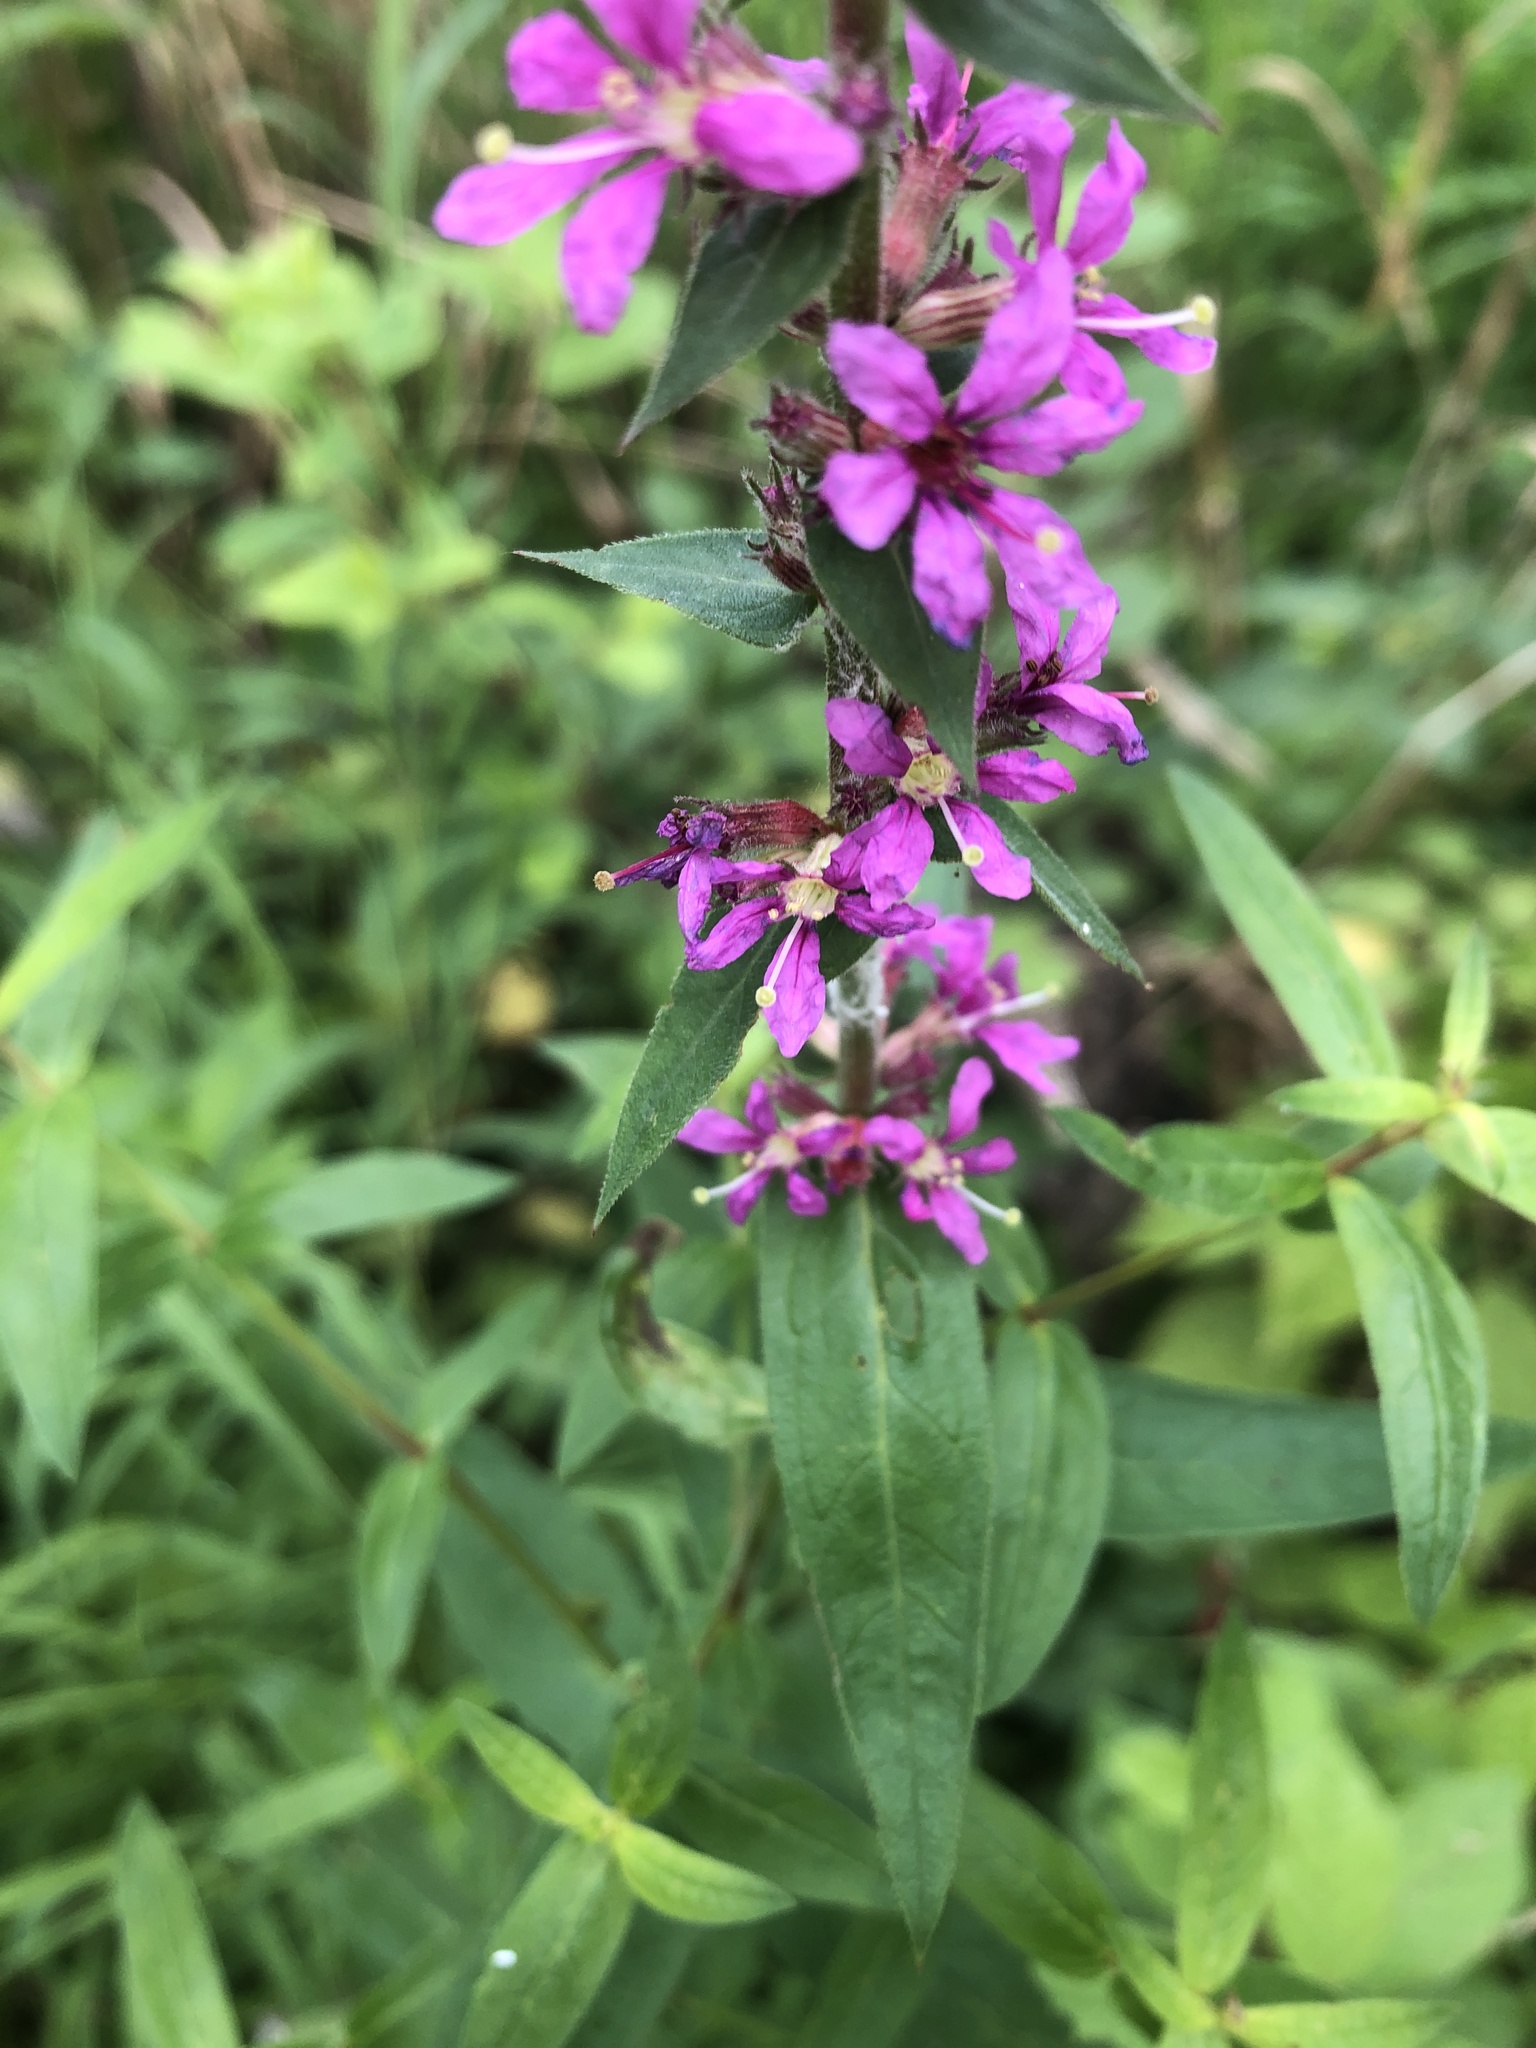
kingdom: Plantae
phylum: Tracheophyta
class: Magnoliopsida
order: Myrtales
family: Lythraceae
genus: Lythrum
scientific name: Lythrum salicaria
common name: Purple loosestrife
